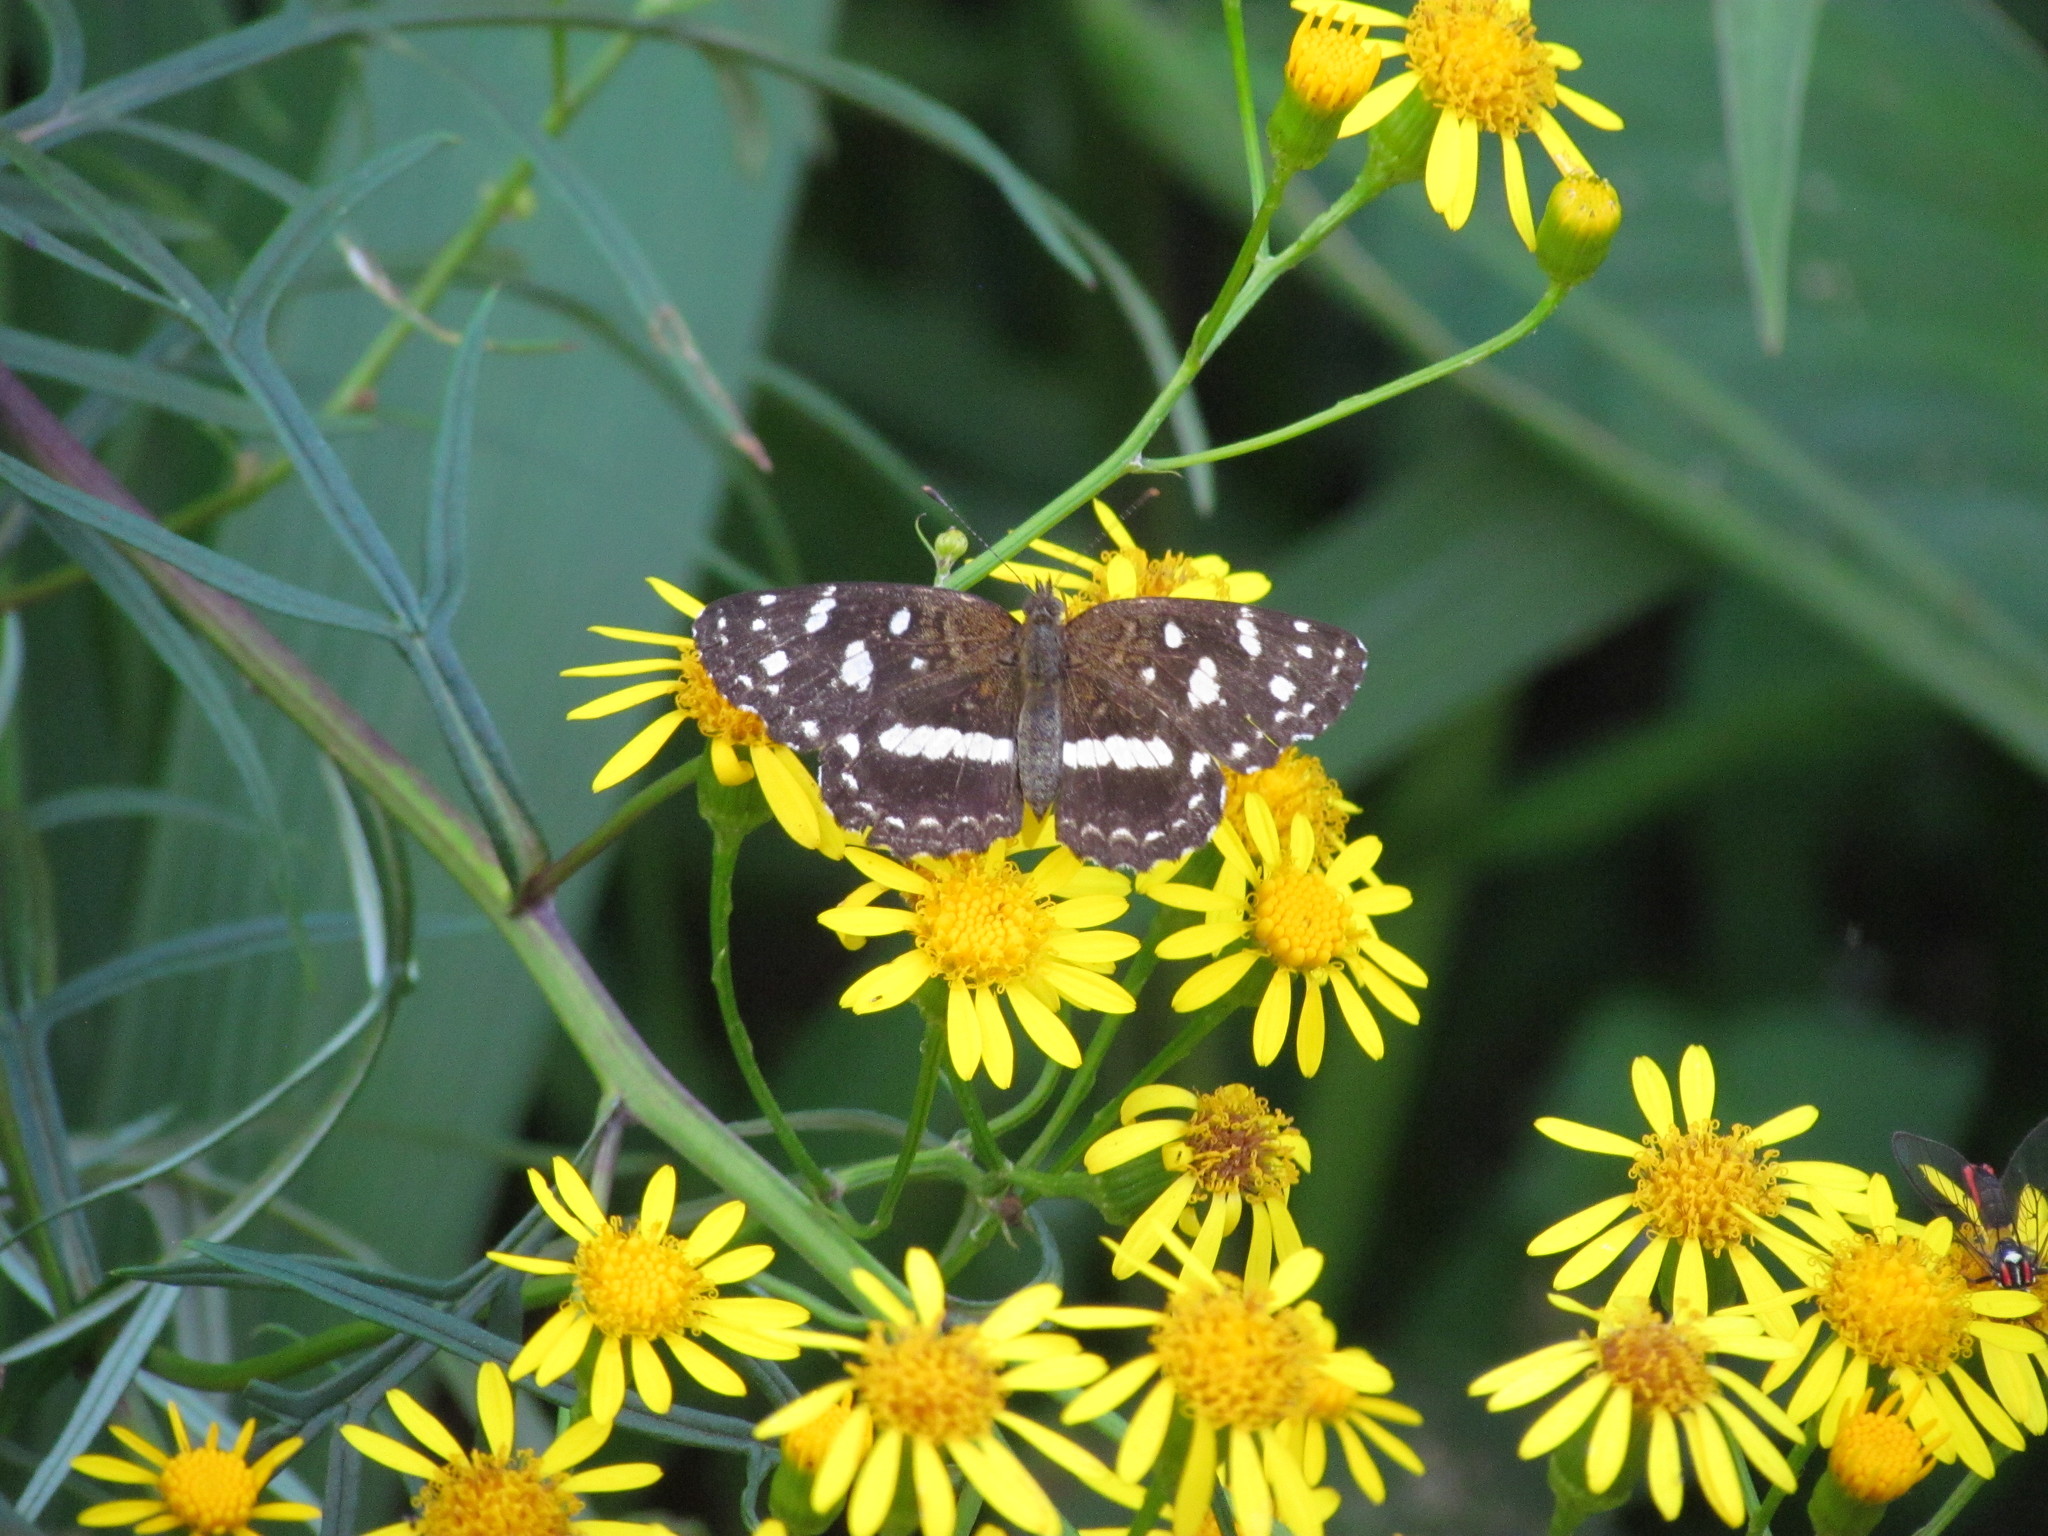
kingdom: Animalia
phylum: Arthropoda
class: Insecta
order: Lepidoptera
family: Nymphalidae
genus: Ortilia
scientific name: Ortilia ithra
